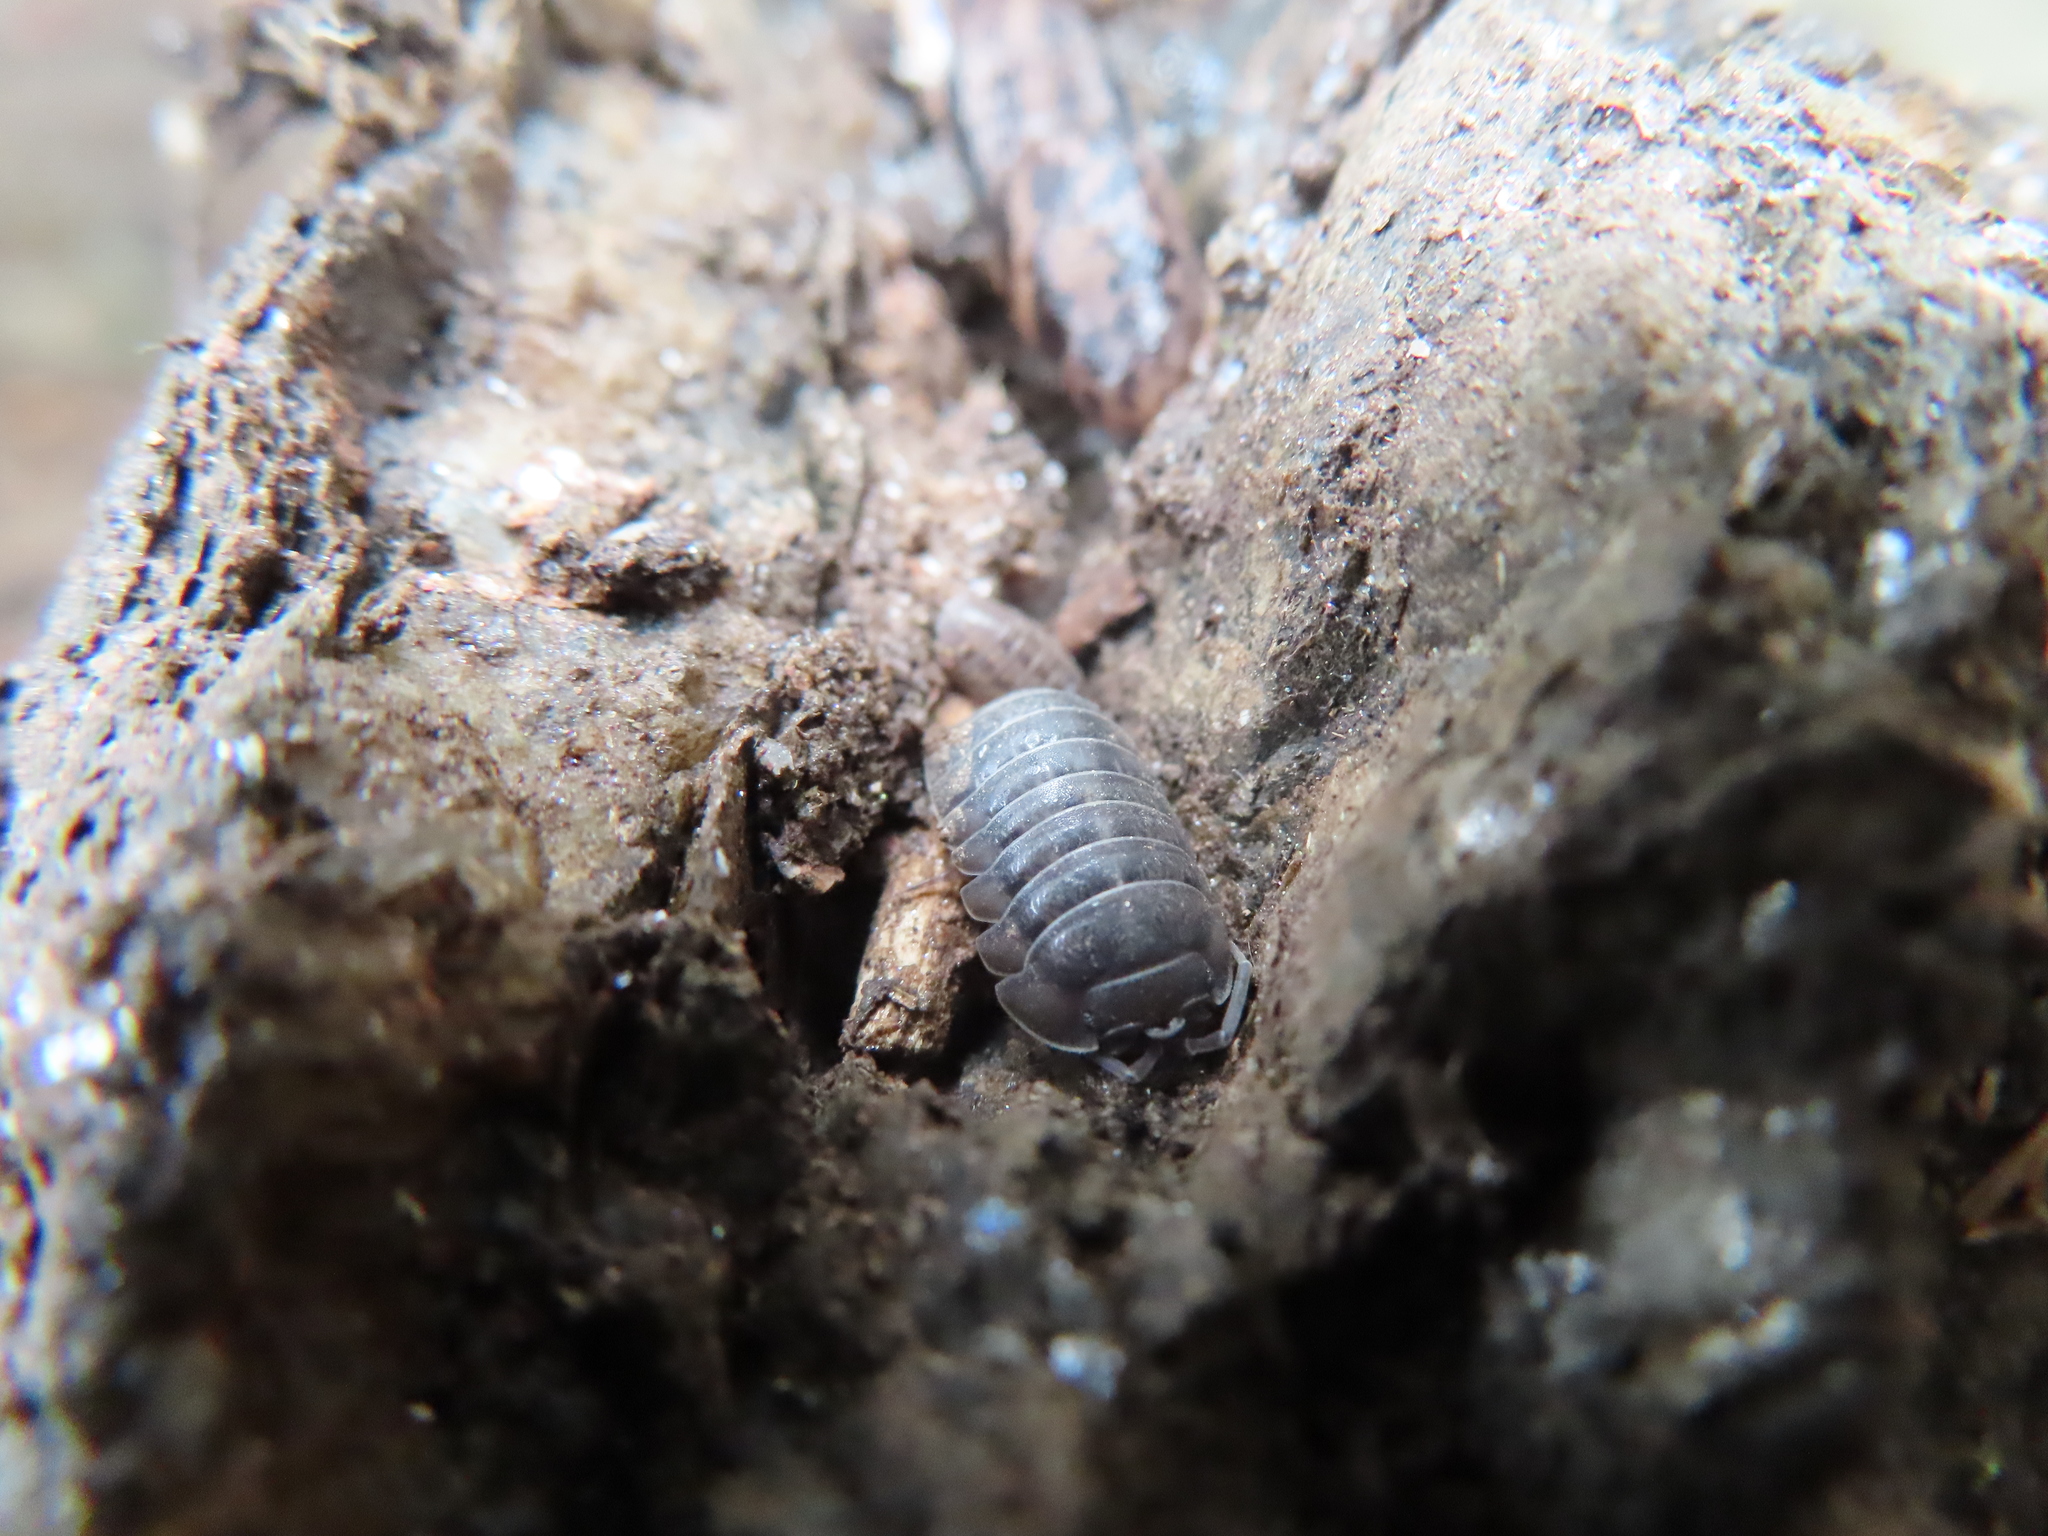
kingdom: Animalia
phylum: Arthropoda
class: Malacostraca
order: Isopoda
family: Armadillidiidae
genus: Armadillidium
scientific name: Armadillidium nasatum
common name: Isopod
